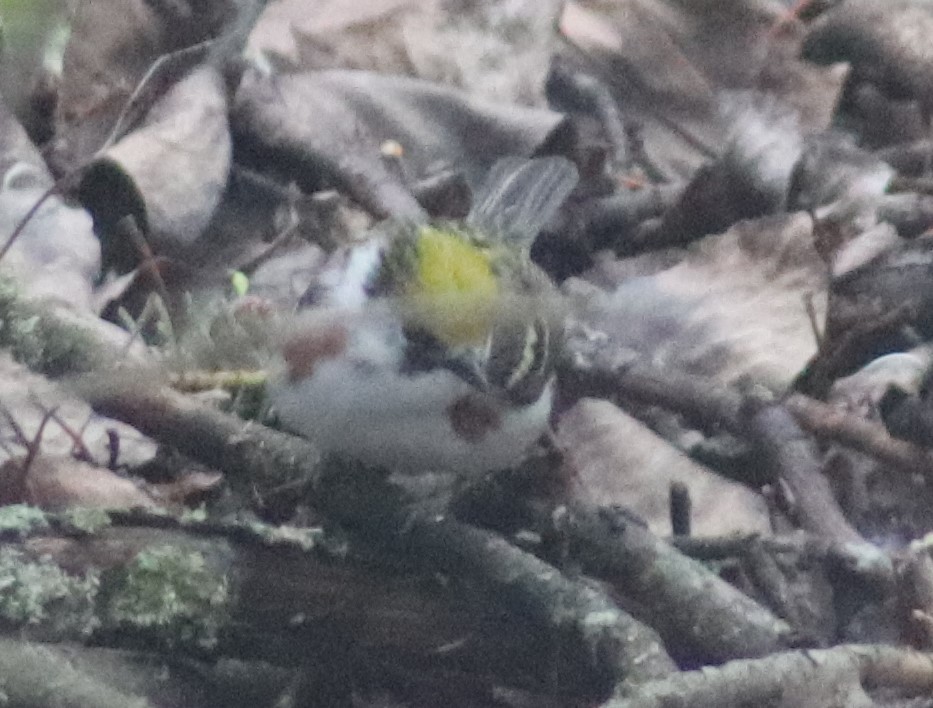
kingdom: Animalia
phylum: Chordata
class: Aves
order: Passeriformes
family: Parulidae
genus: Setophaga
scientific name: Setophaga pensylvanica
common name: Chestnut-sided warbler
